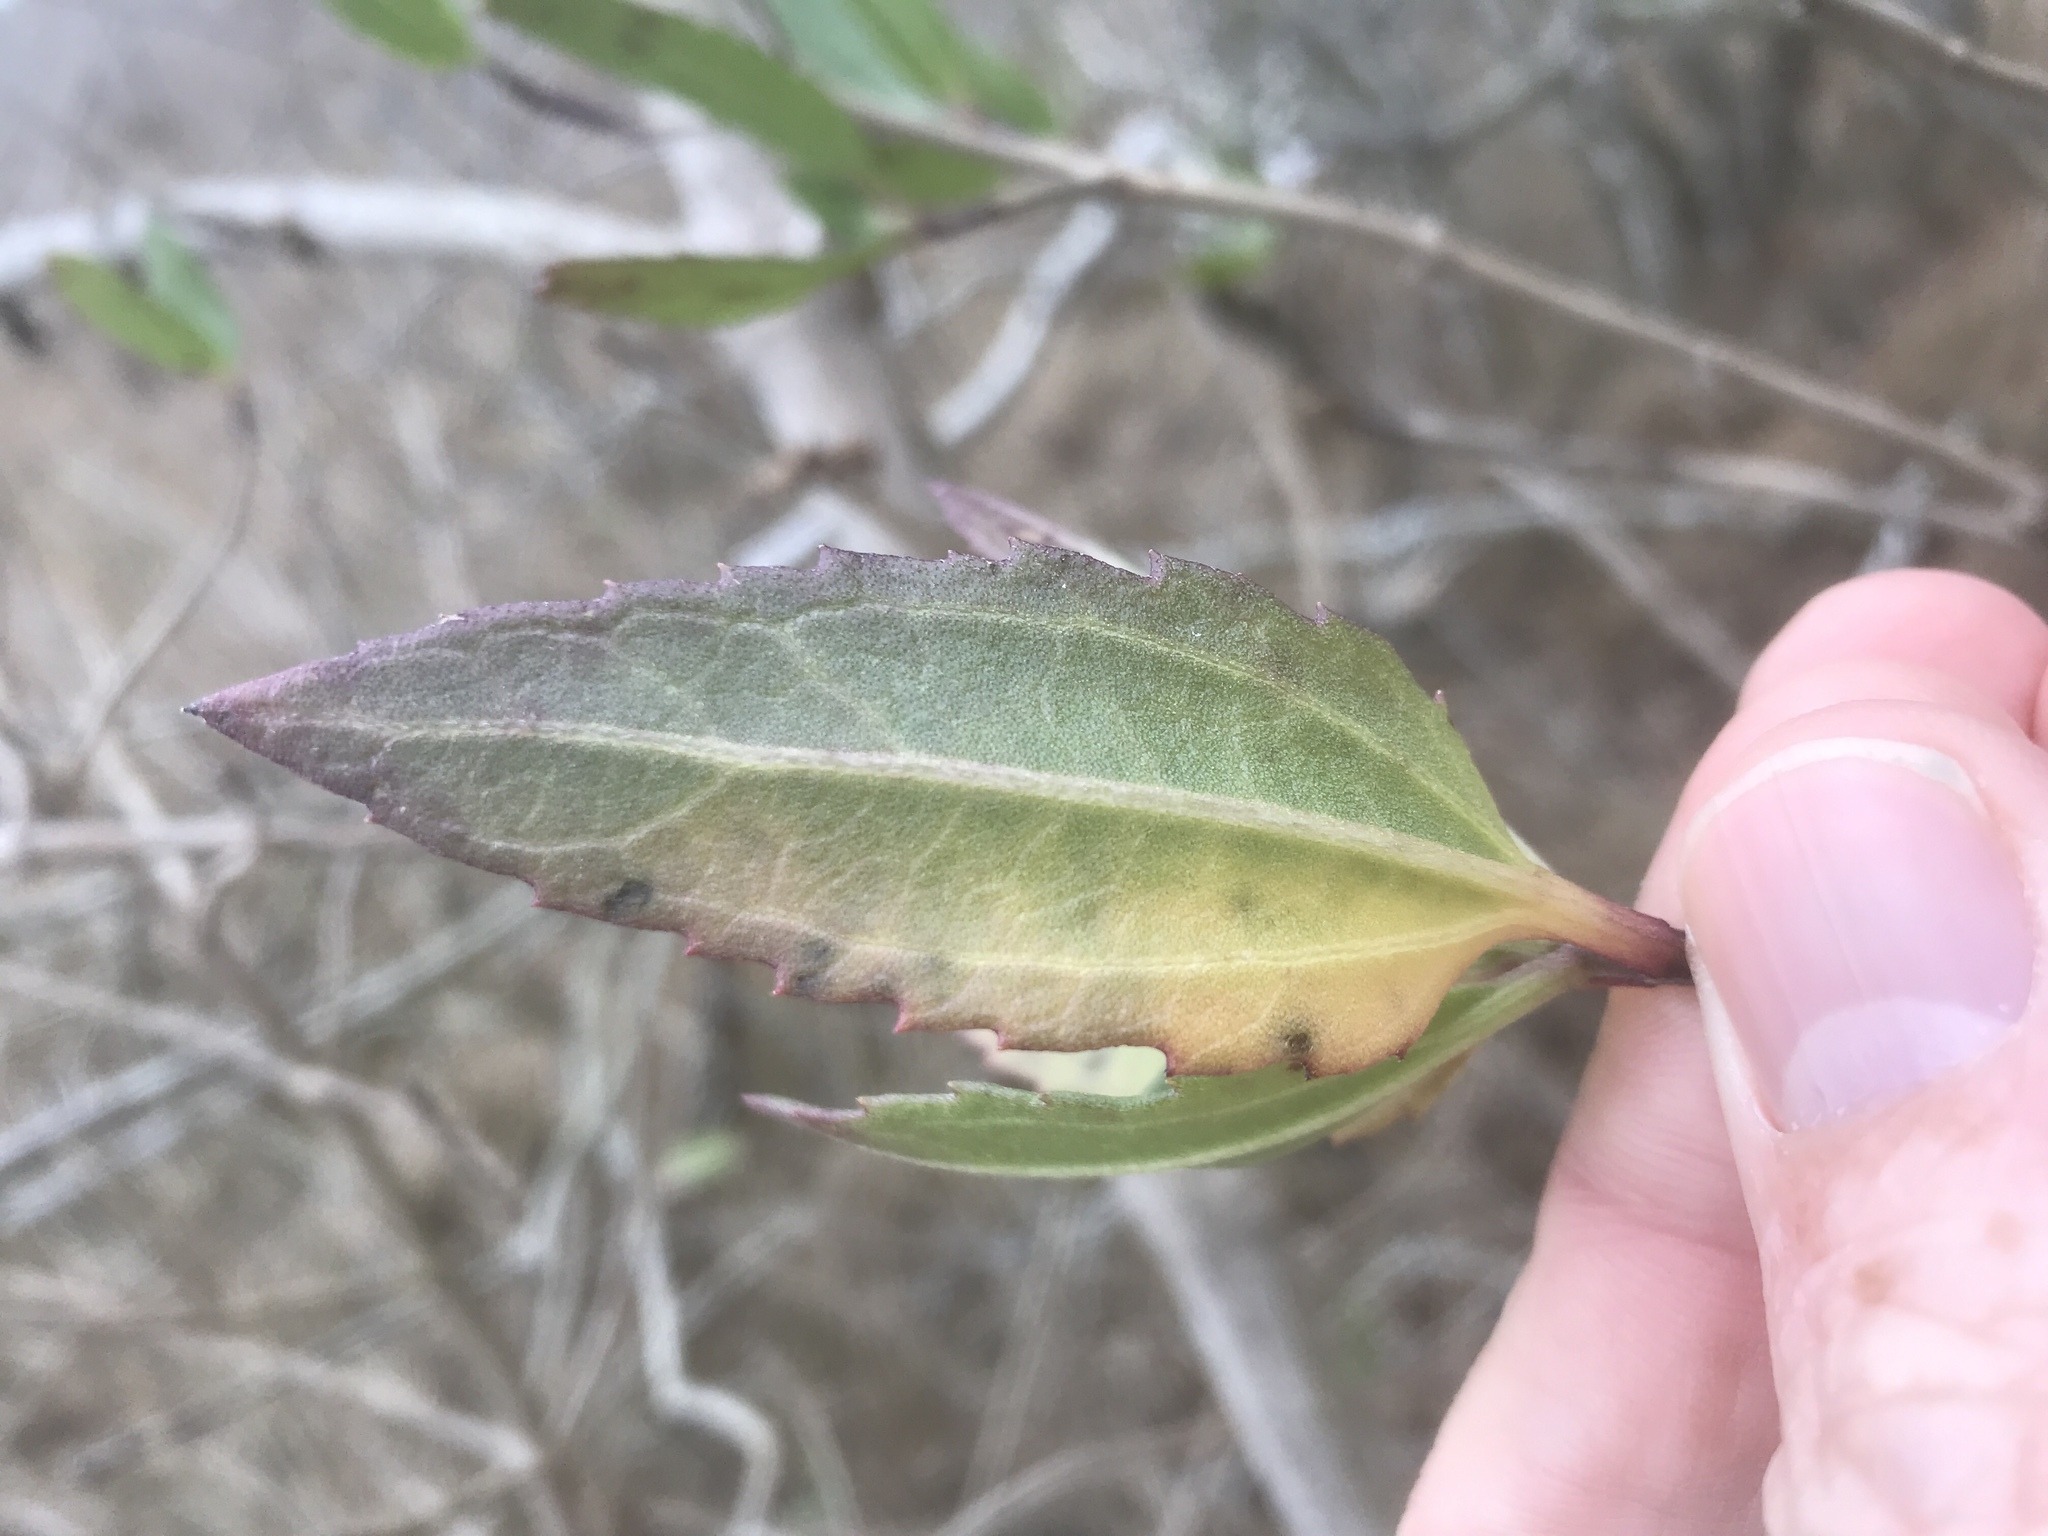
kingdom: Plantae
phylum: Tracheophyta
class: Magnoliopsida
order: Asterales
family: Asteraceae
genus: Iva
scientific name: Iva frutescens
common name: Big-leaved marsh-elder
